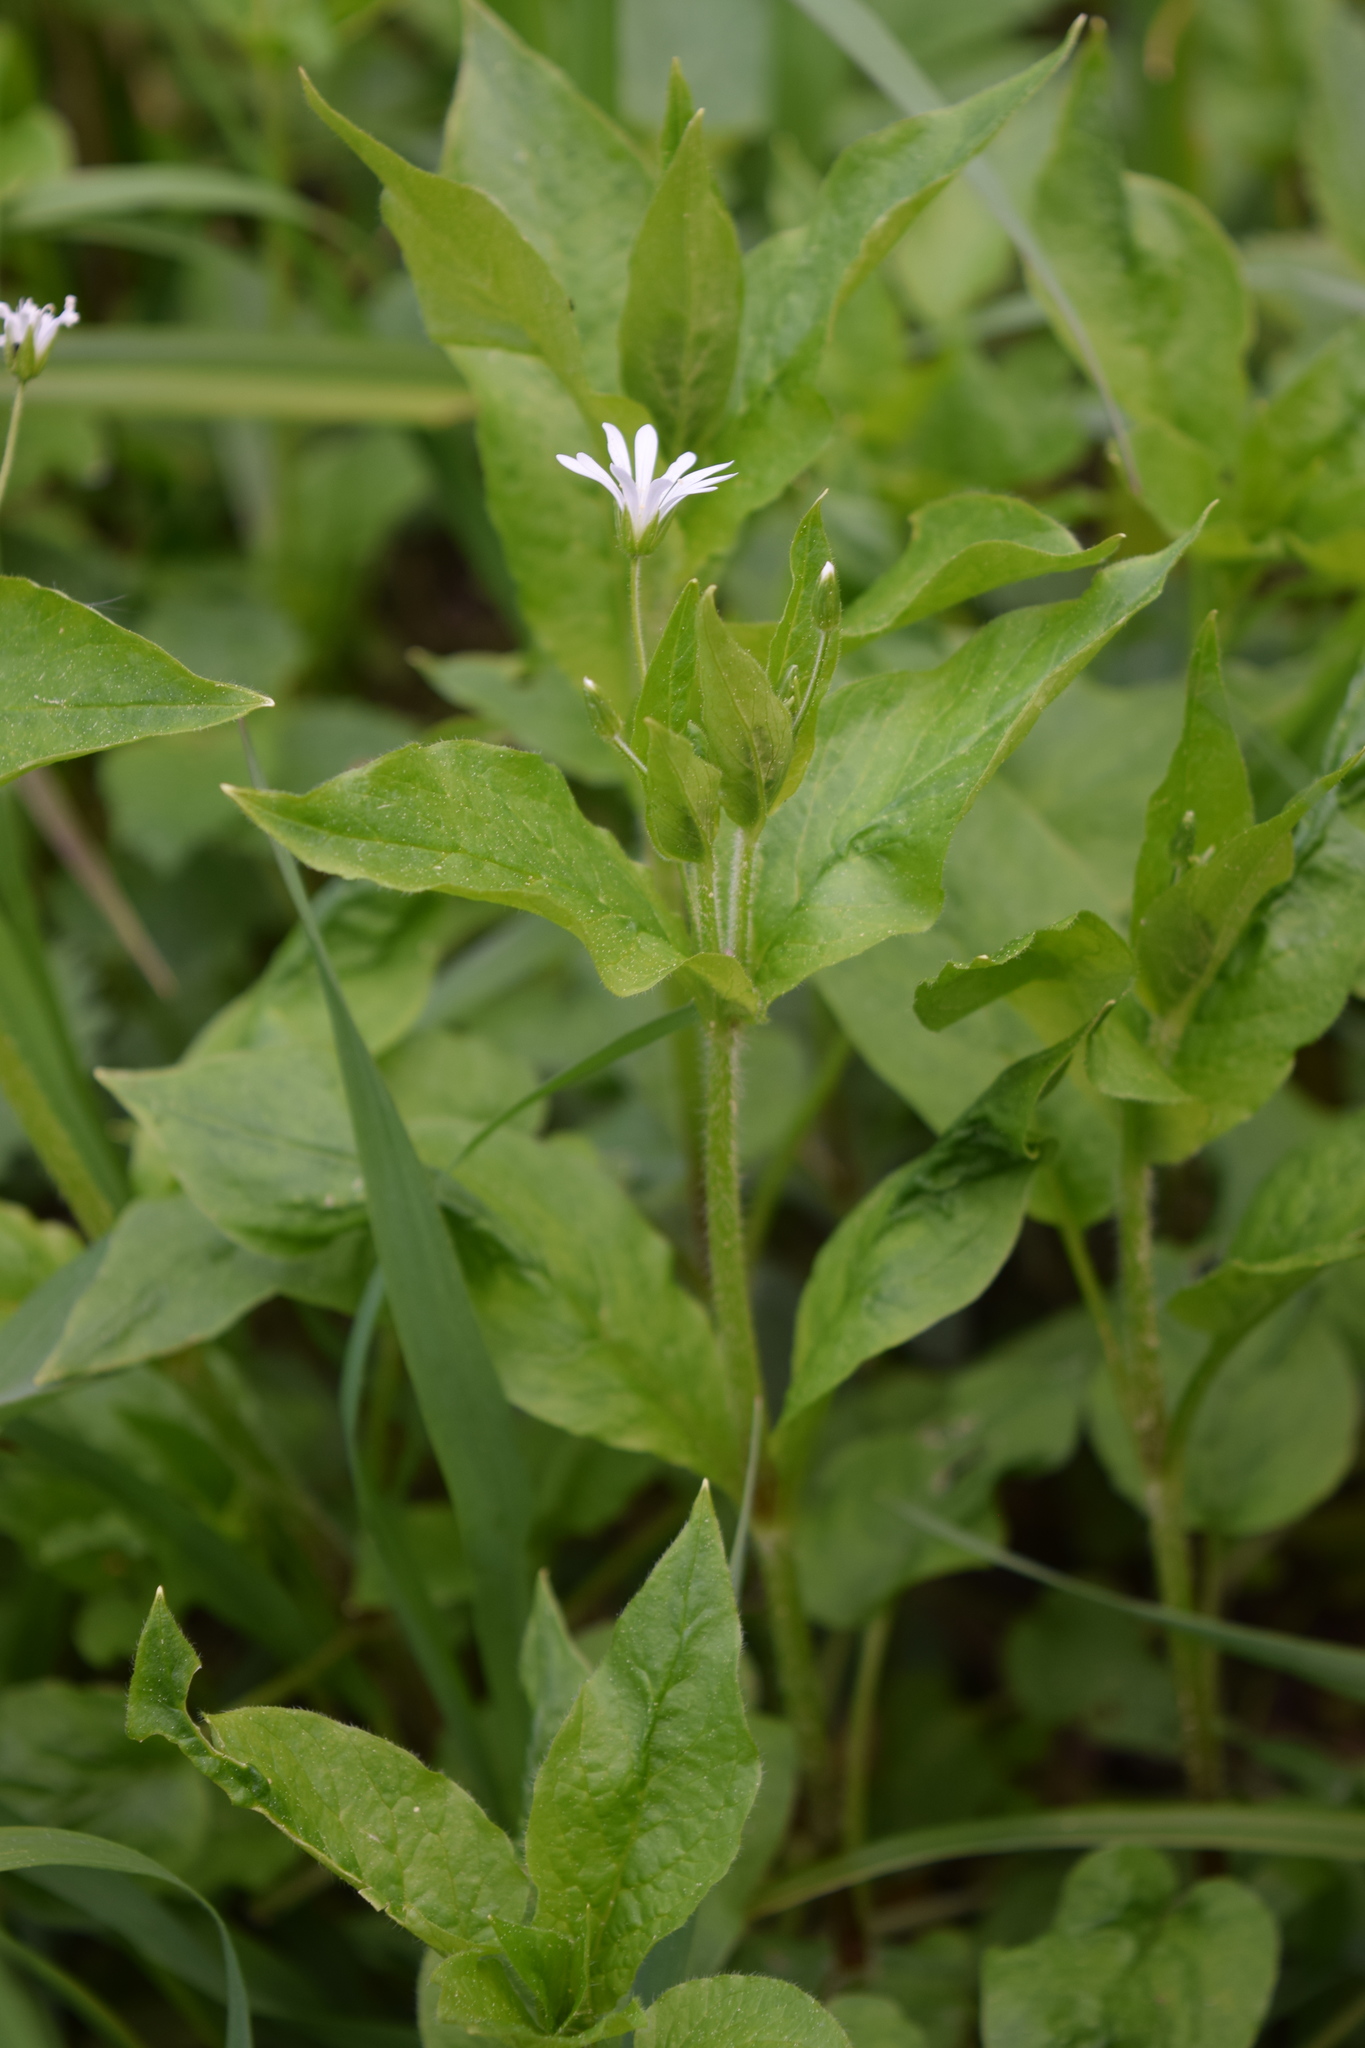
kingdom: Plantae
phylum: Tracheophyta
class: Magnoliopsida
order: Caryophyllales
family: Caryophyllaceae
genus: Stellaria
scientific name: Stellaria nemorum
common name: Wood stitchwort
